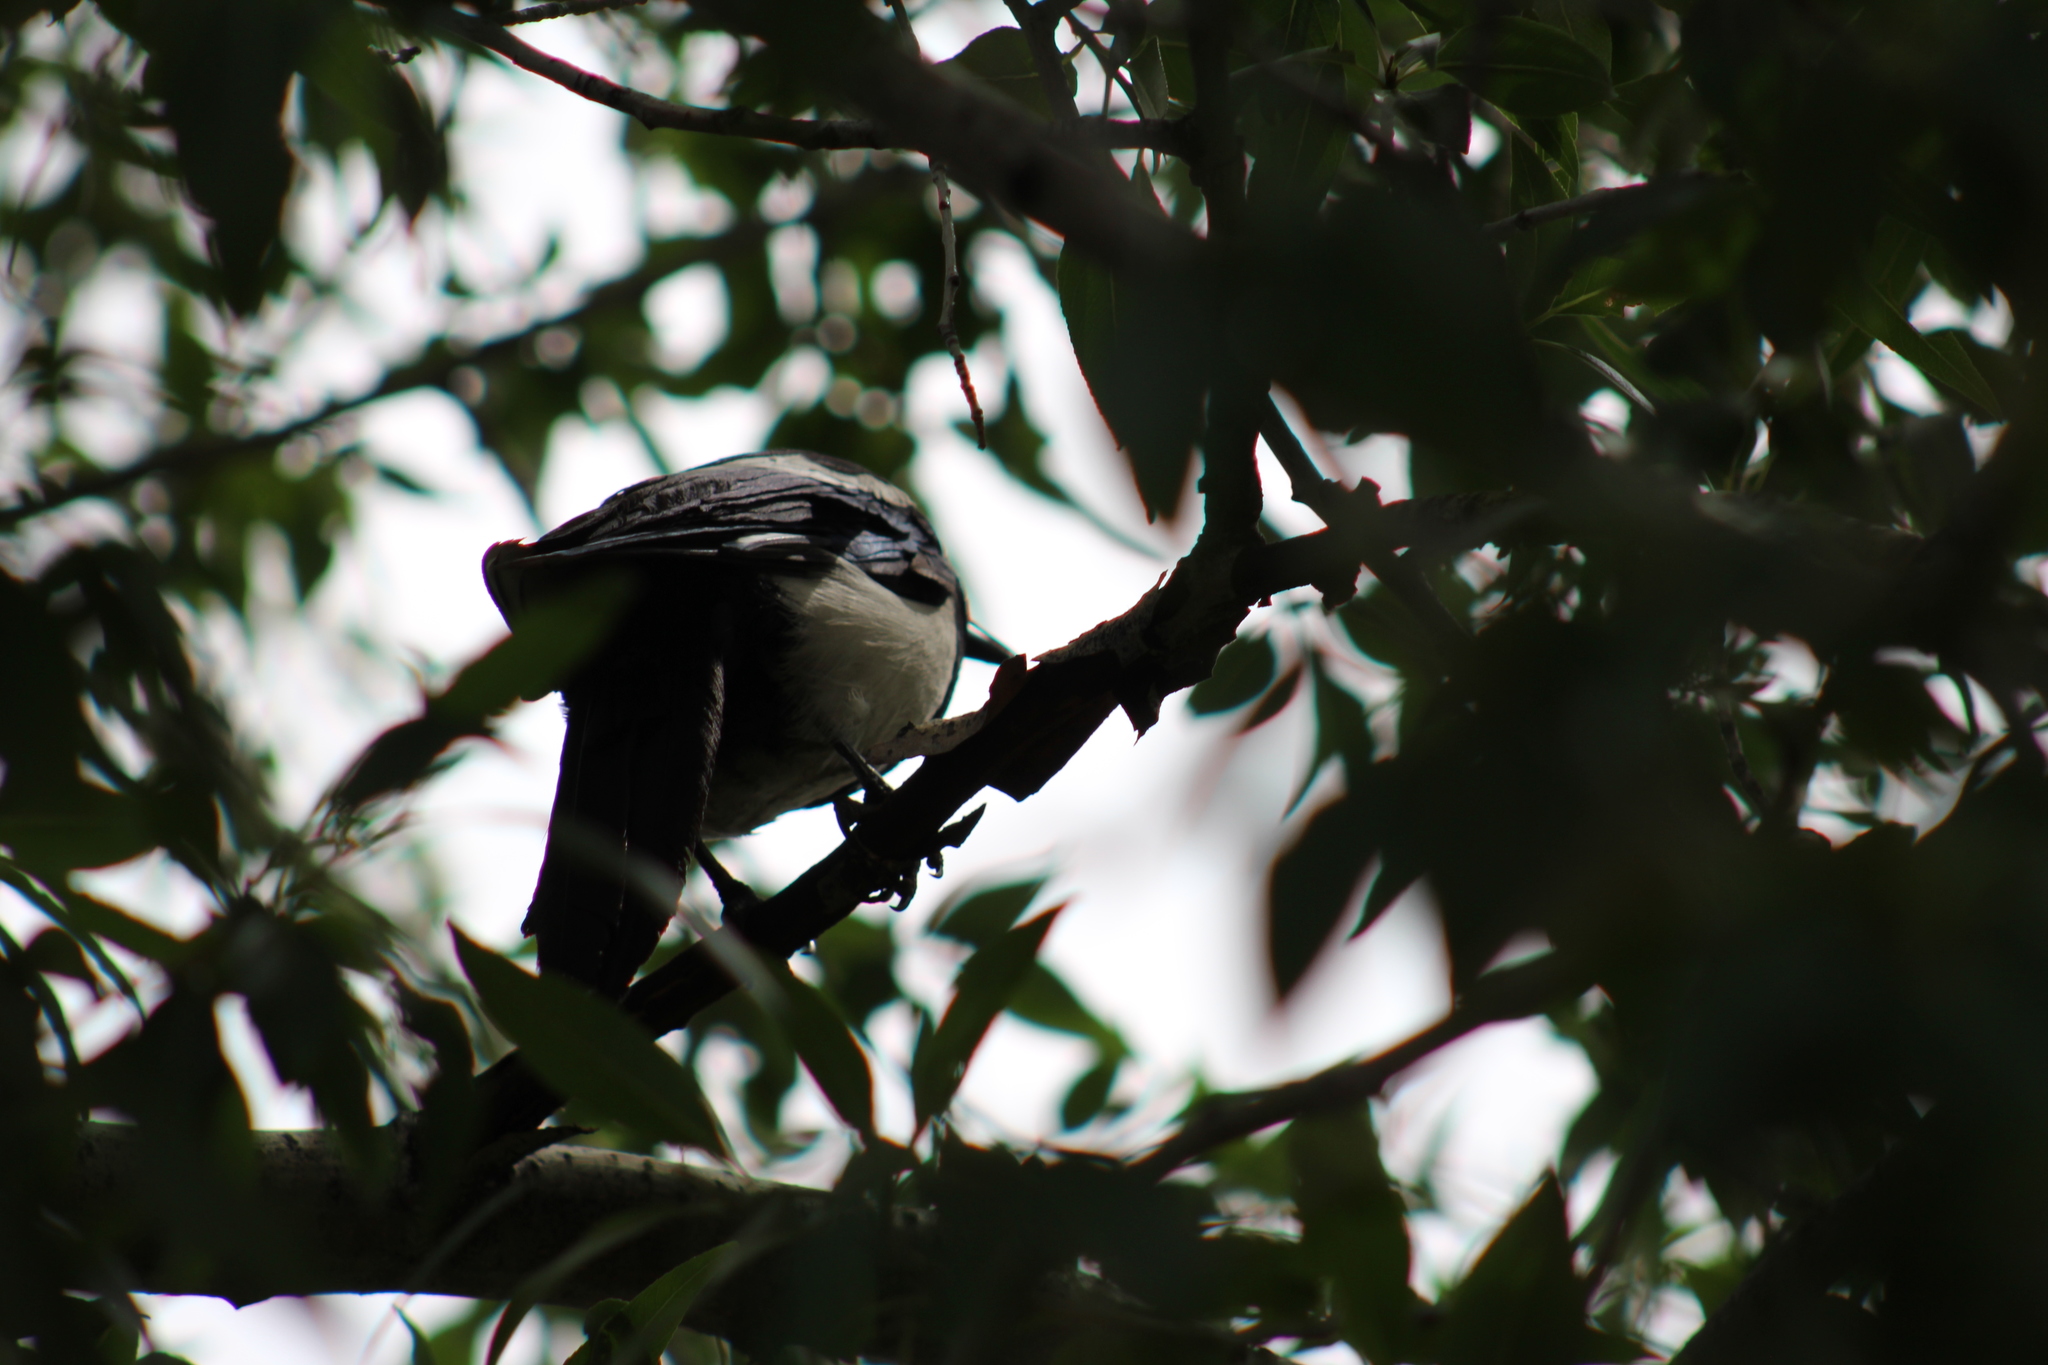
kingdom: Animalia
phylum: Chordata
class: Aves
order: Passeriformes
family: Corvidae
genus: Pica
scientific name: Pica hudsonia
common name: Black-billed magpie
